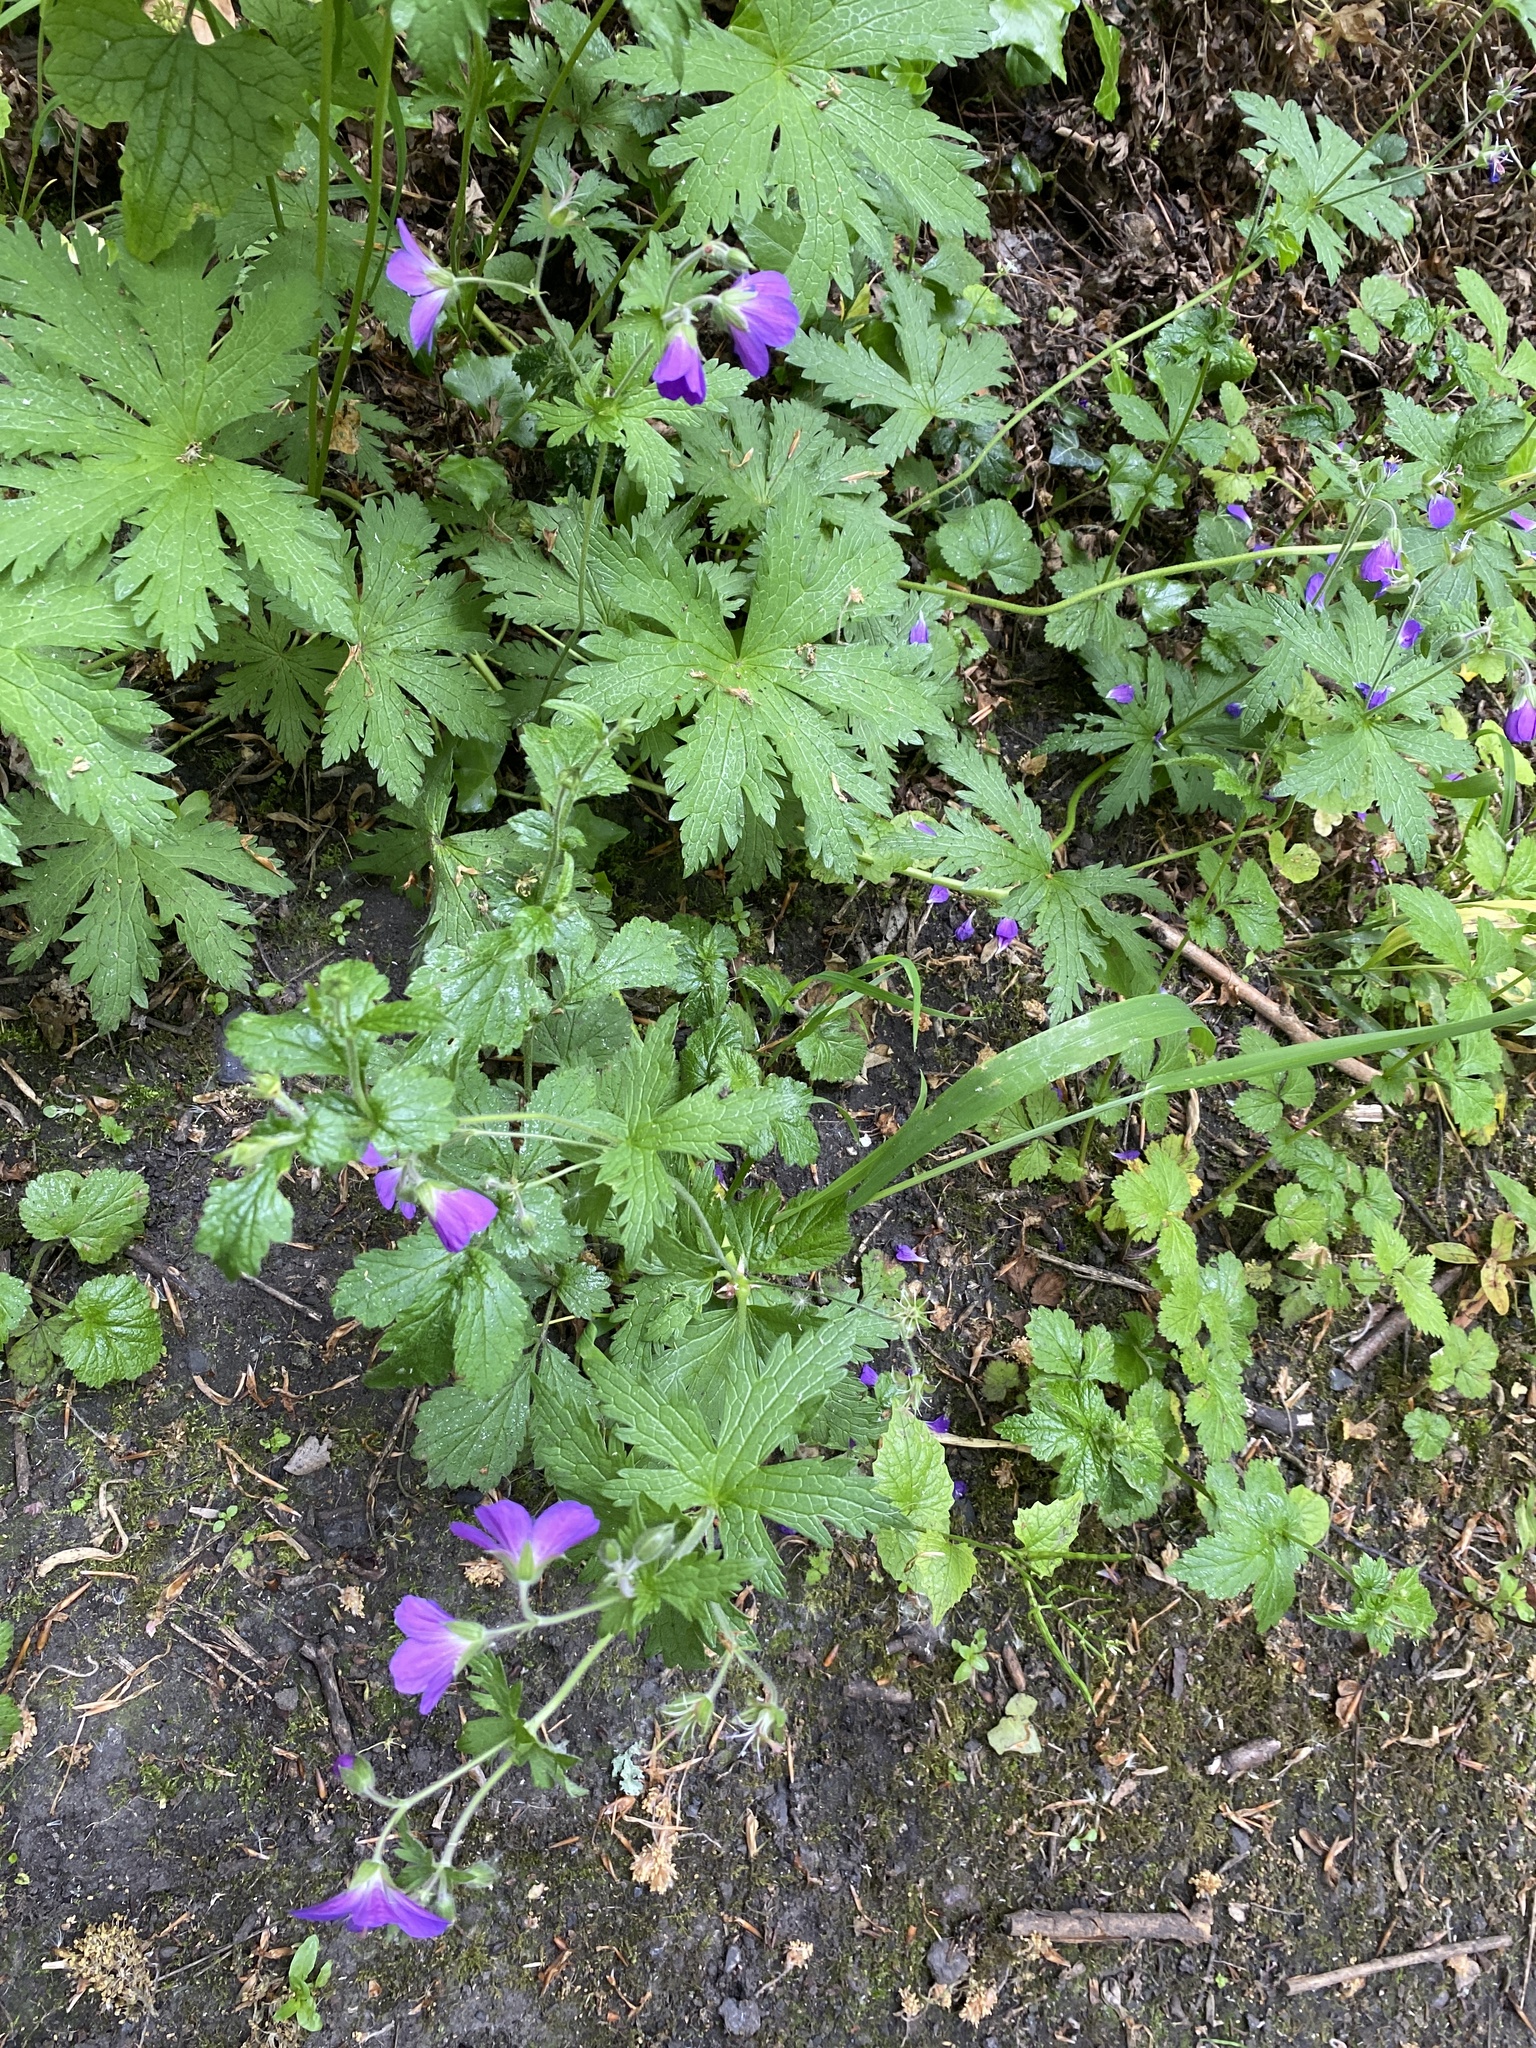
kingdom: Plantae
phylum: Tracheophyta
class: Magnoliopsida
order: Geraniales
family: Geraniaceae
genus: Geranium
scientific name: Geranium sylvaticum
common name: Wood crane's-bill
